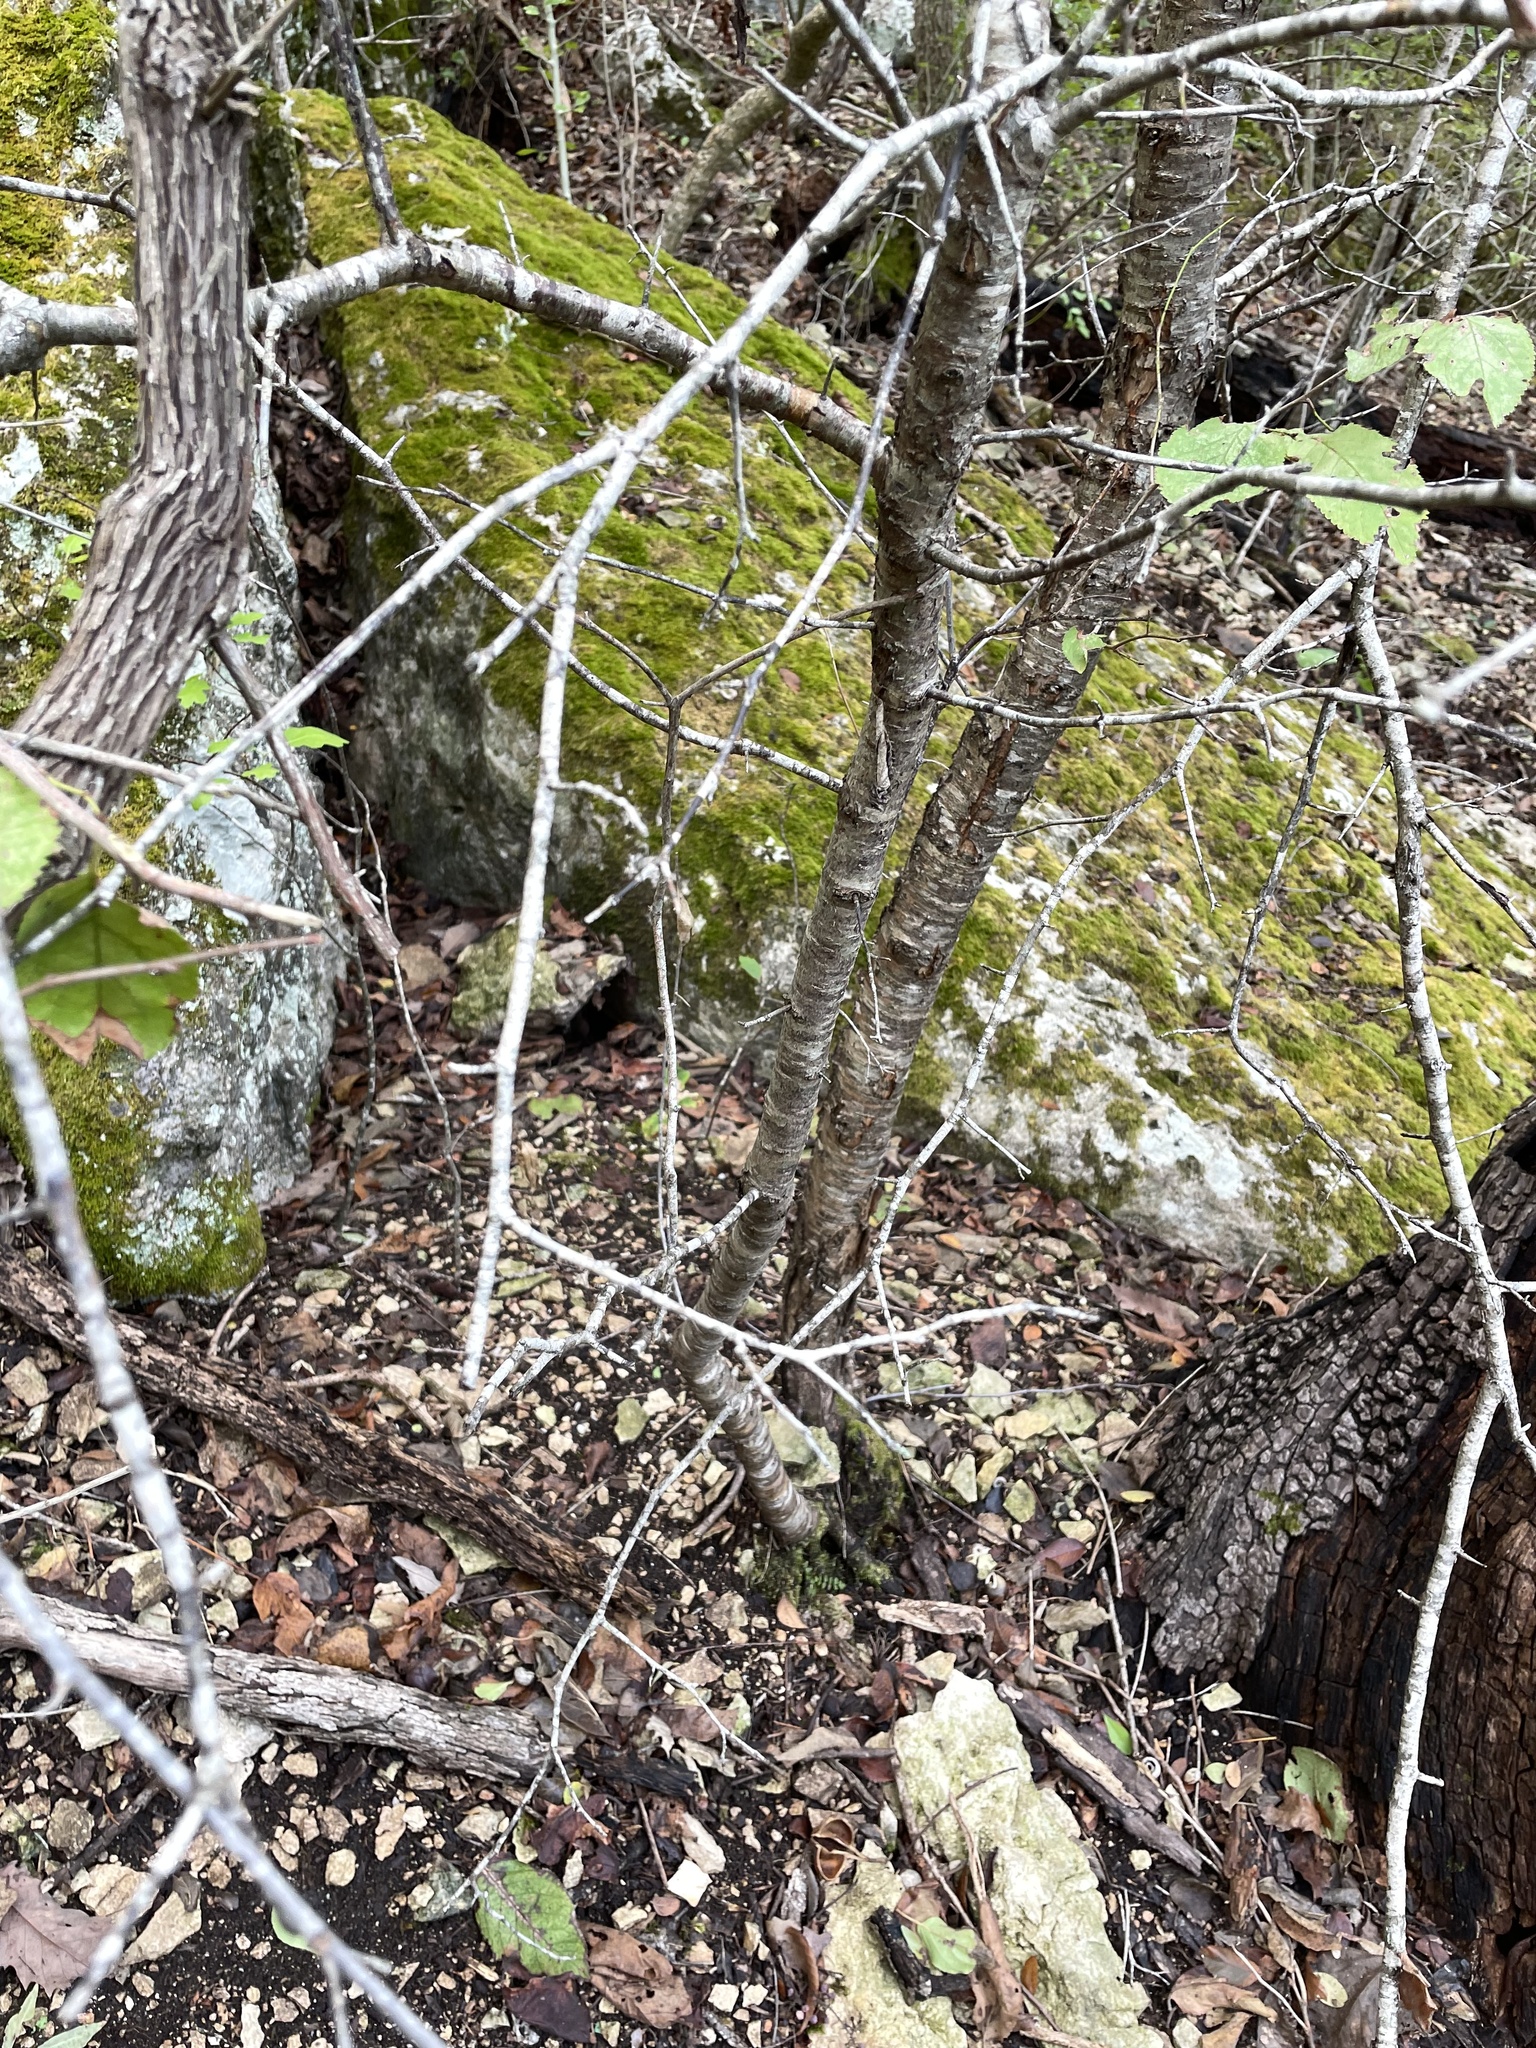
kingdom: Plantae
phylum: Tracheophyta
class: Magnoliopsida
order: Rosales
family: Rosaceae
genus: Prunus
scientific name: Prunus mexicana
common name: Mexican plum
